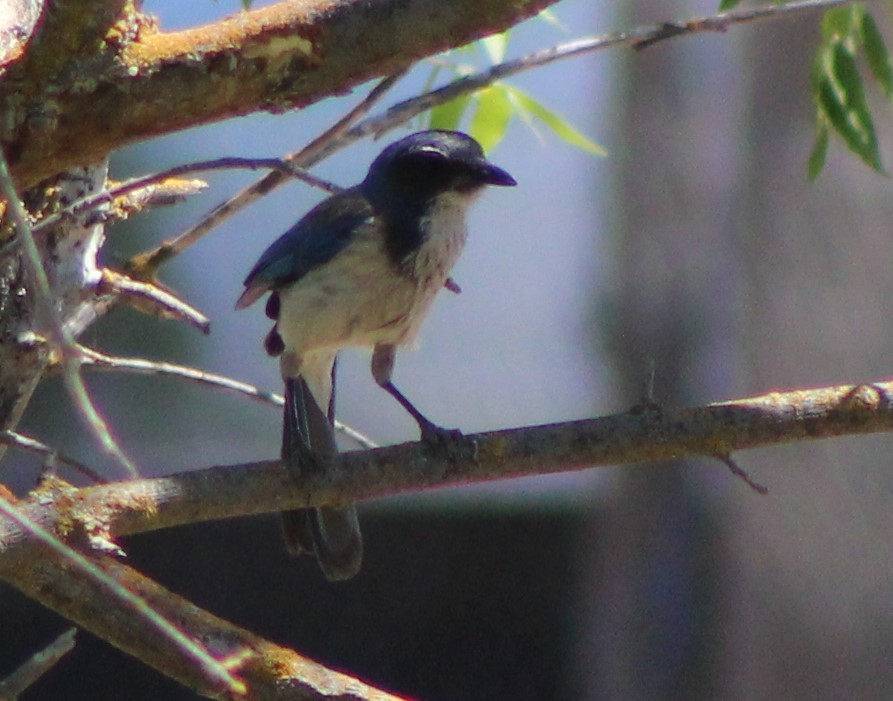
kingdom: Animalia
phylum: Chordata
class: Aves
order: Passeriformes
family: Corvidae
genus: Aphelocoma
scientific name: Aphelocoma californica
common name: California scrub-jay
